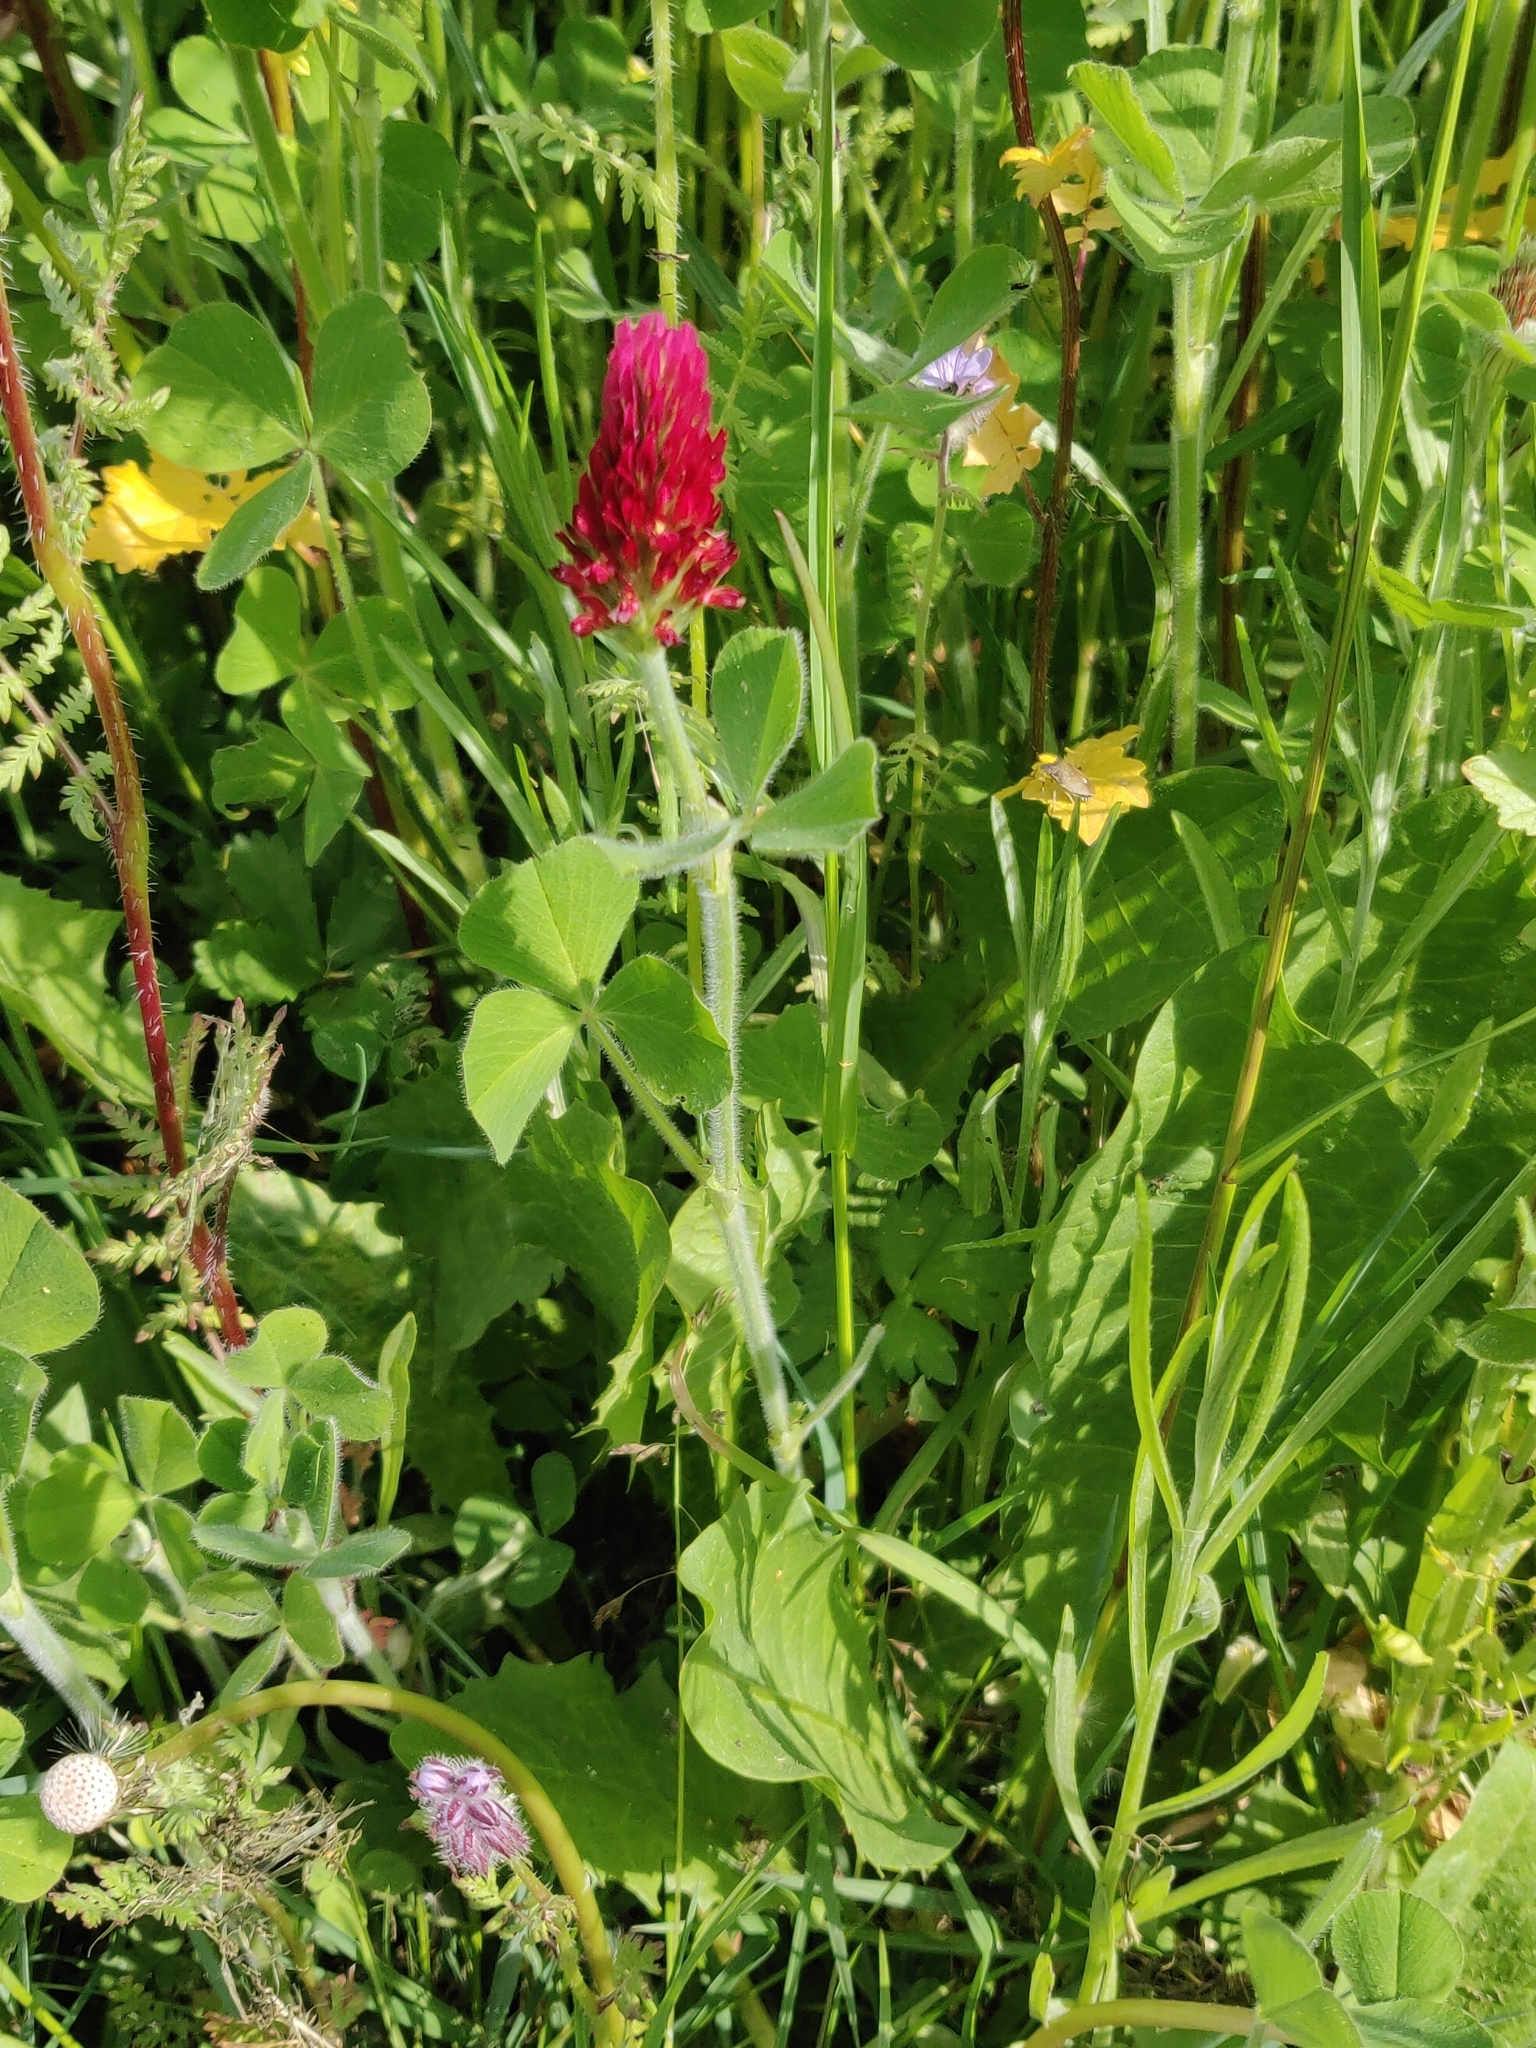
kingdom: Plantae
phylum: Tracheophyta
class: Magnoliopsida
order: Fabales
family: Fabaceae
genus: Trifolium
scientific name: Trifolium incarnatum
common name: Crimson clover
